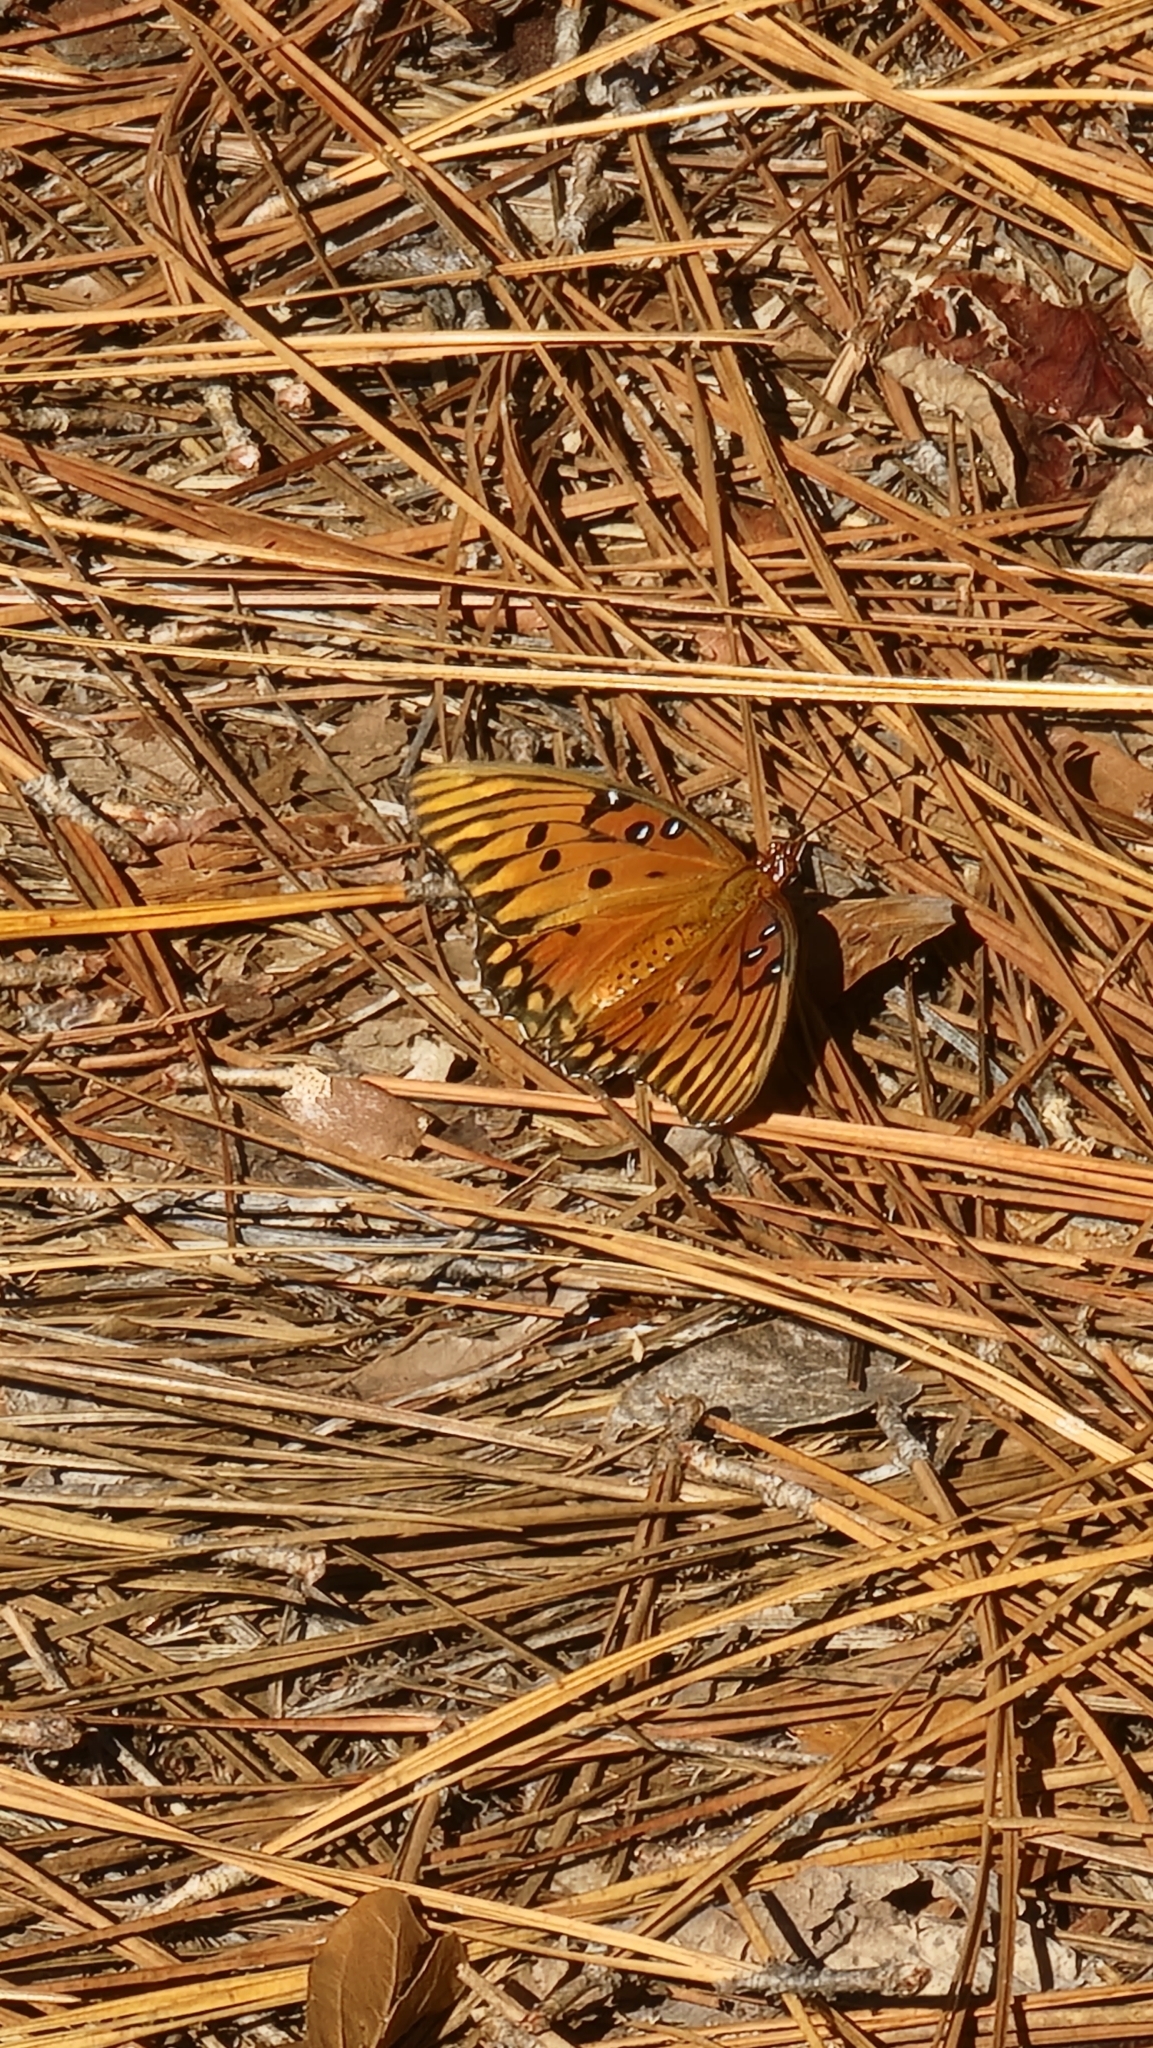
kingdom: Animalia
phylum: Arthropoda
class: Insecta
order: Lepidoptera
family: Nymphalidae
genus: Dione
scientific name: Dione vanillae
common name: Gulf fritillary
